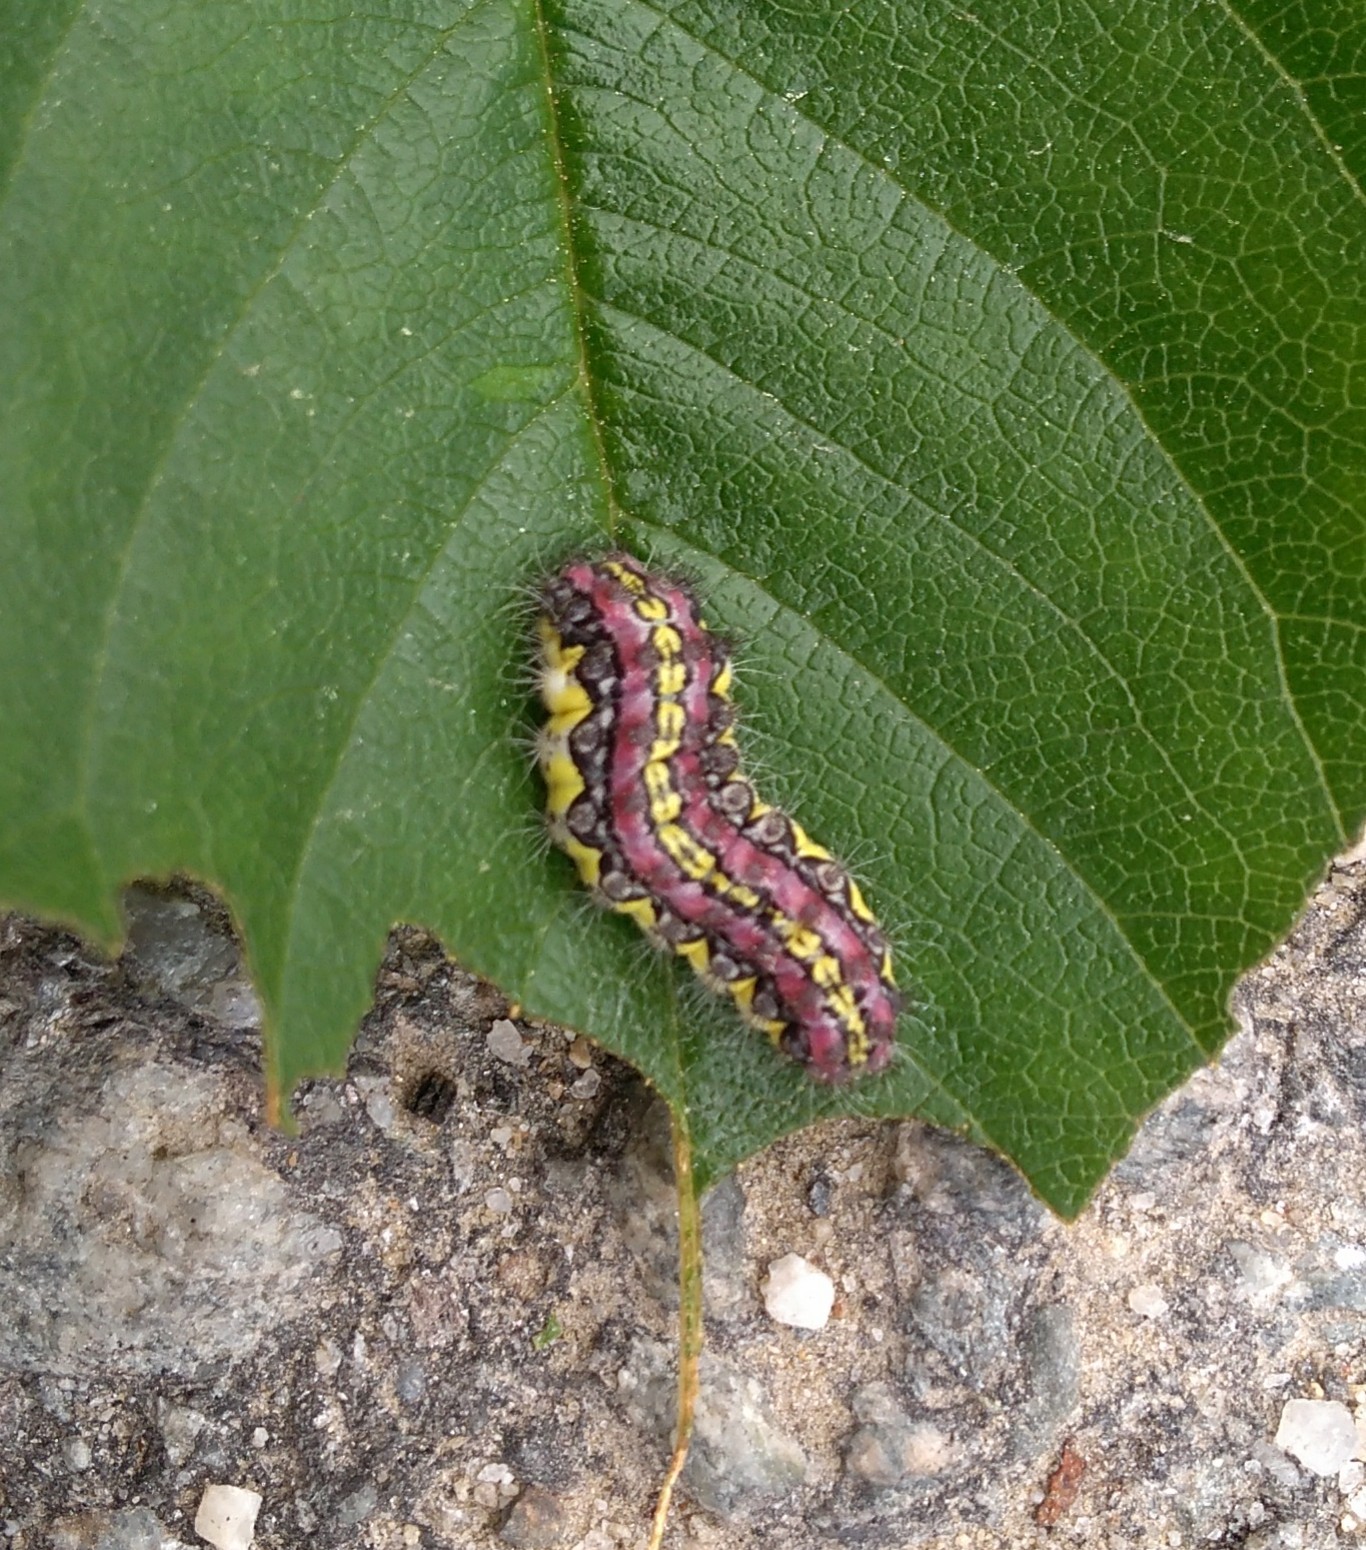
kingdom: Animalia
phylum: Arthropoda
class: Insecta
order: Lepidoptera
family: Zygaenidae
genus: Aglaope
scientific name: Aglaope infausta
